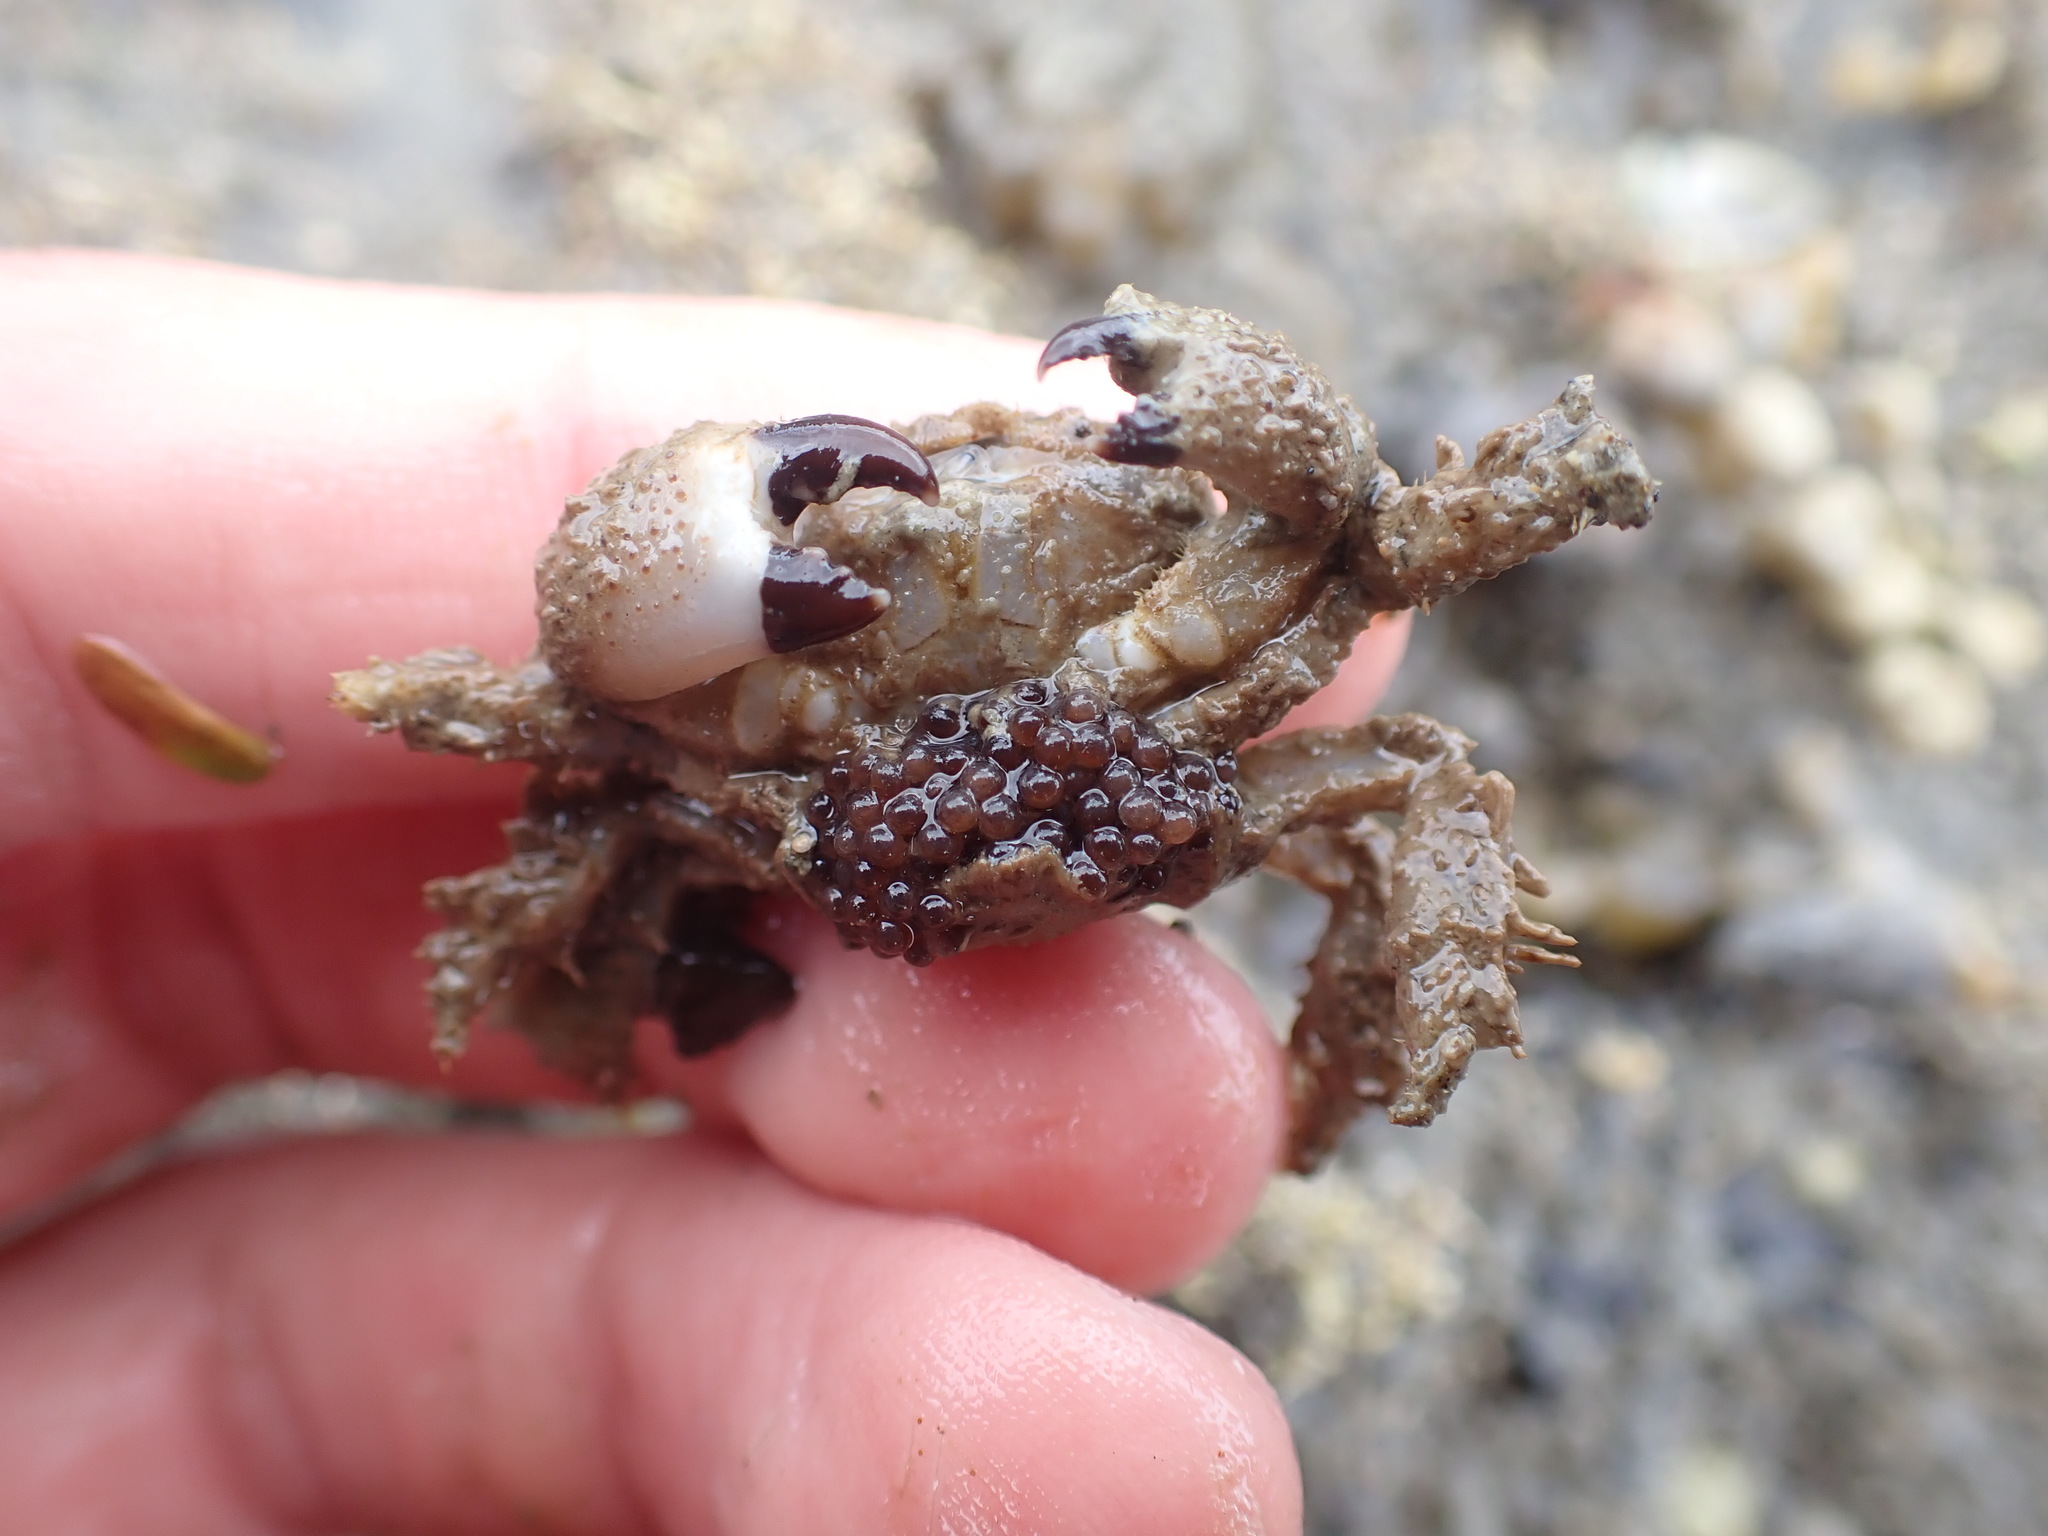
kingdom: Animalia
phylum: Arthropoda
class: Malacostraca
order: Decapoda
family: Pilumnidae
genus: Pilumnus
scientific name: Pilumnus lumpinus
